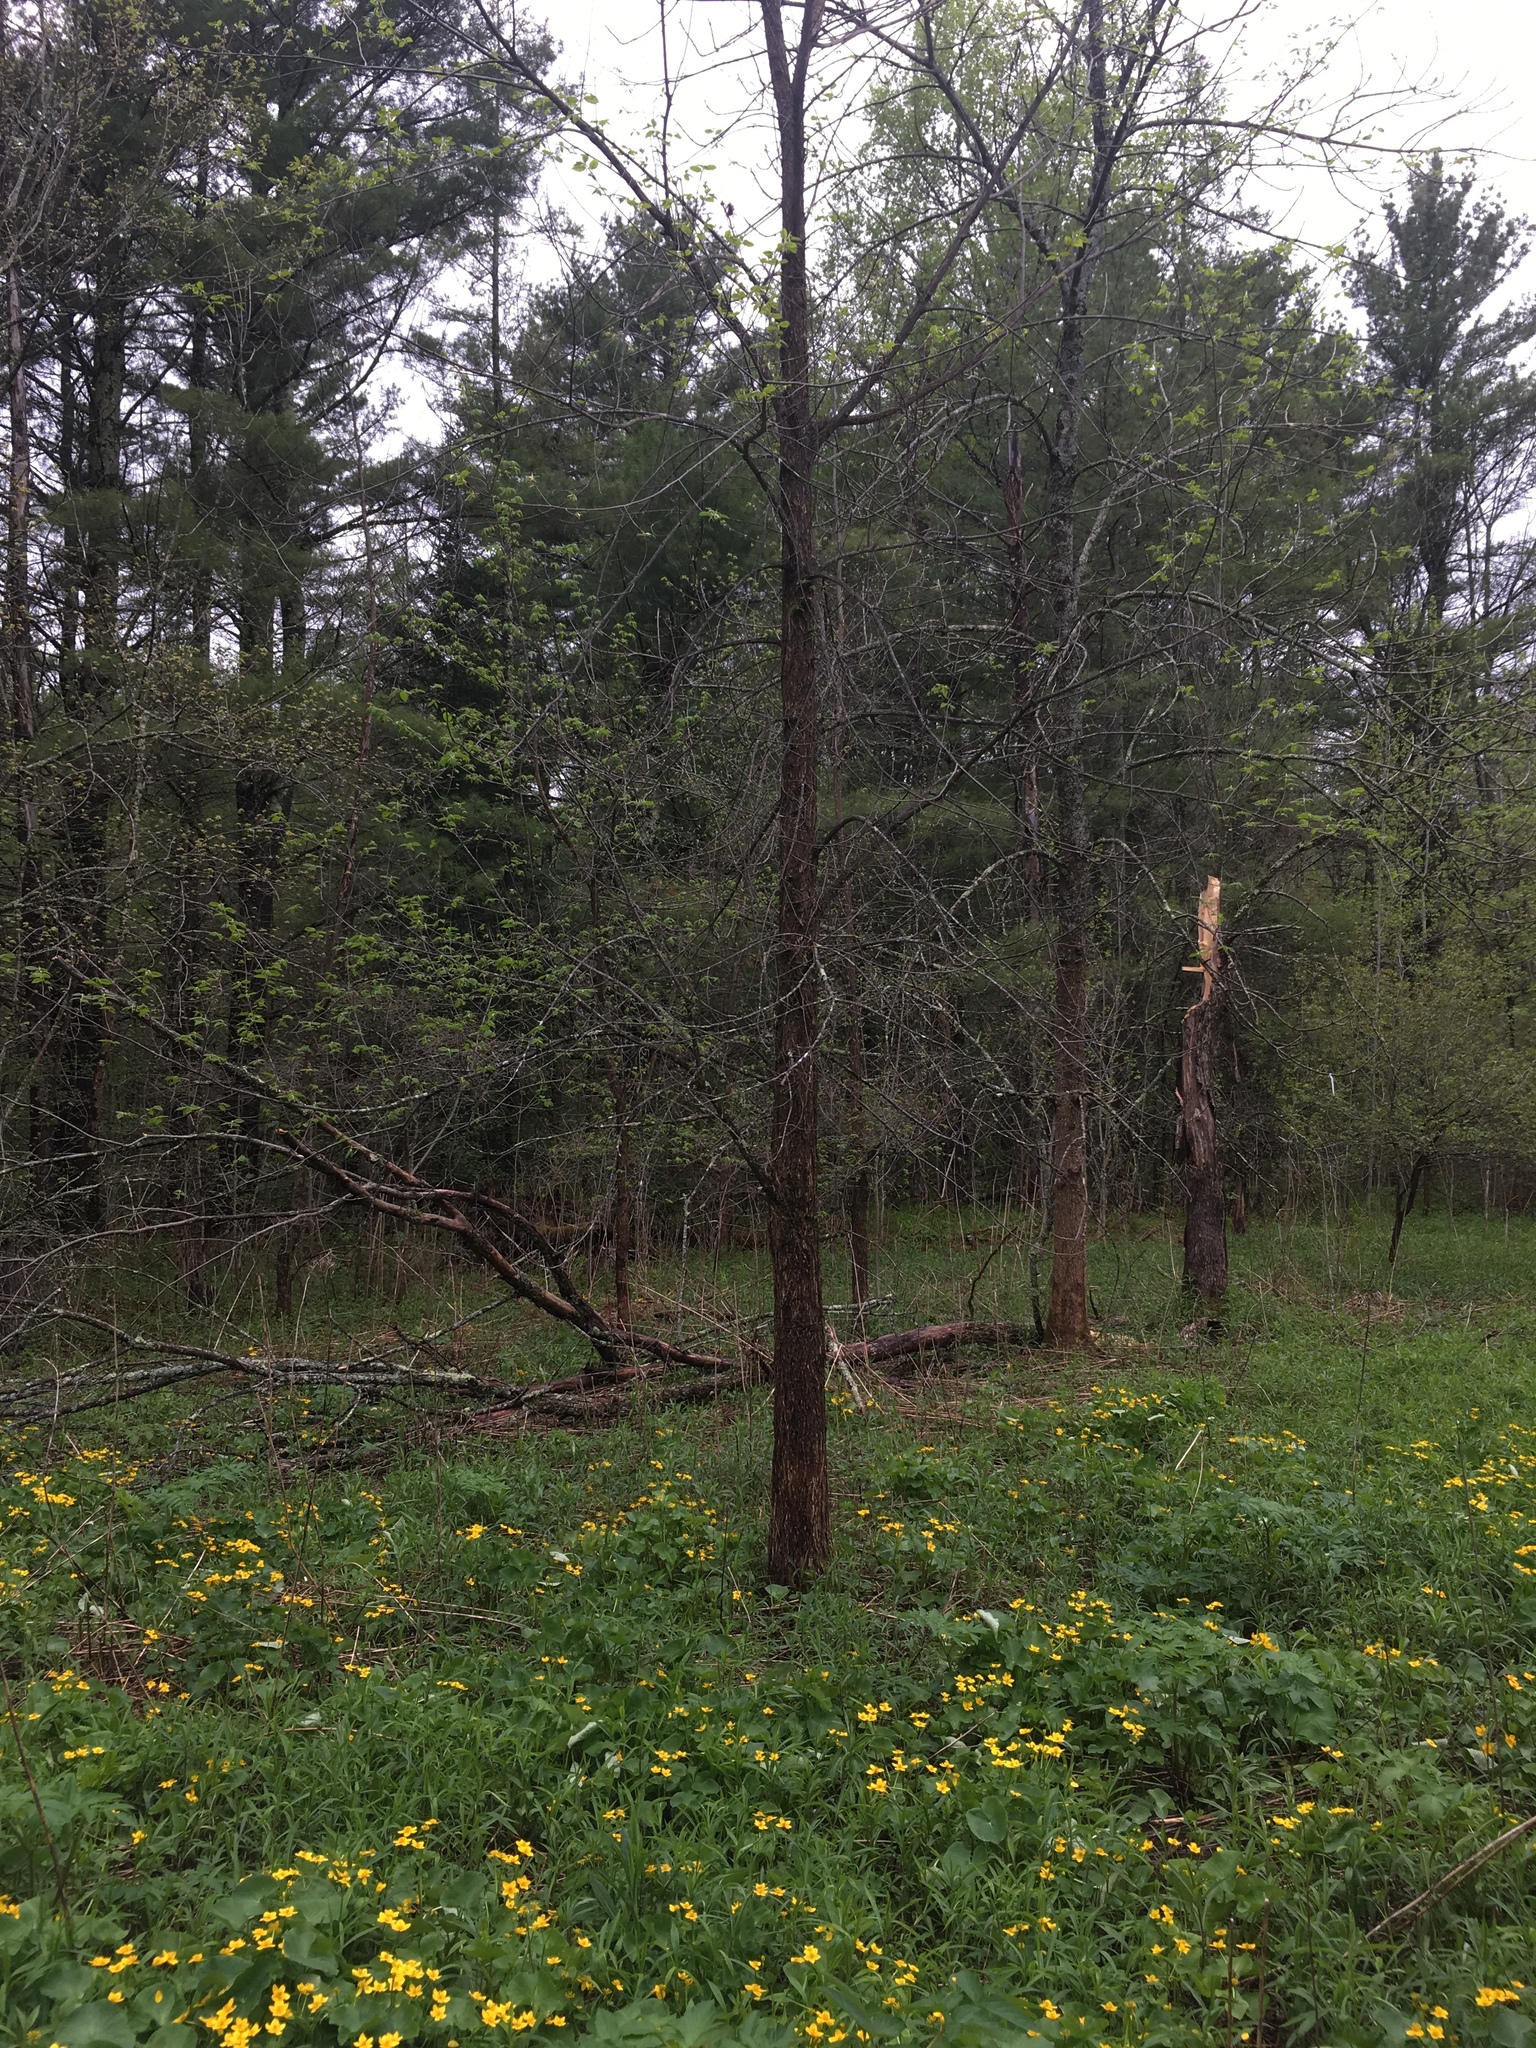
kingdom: Plantae
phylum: Tracheophyta
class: Magnoliopsida
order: Rosales
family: Ulmaceae
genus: Ulmus
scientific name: Ulmus americana
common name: American elm
